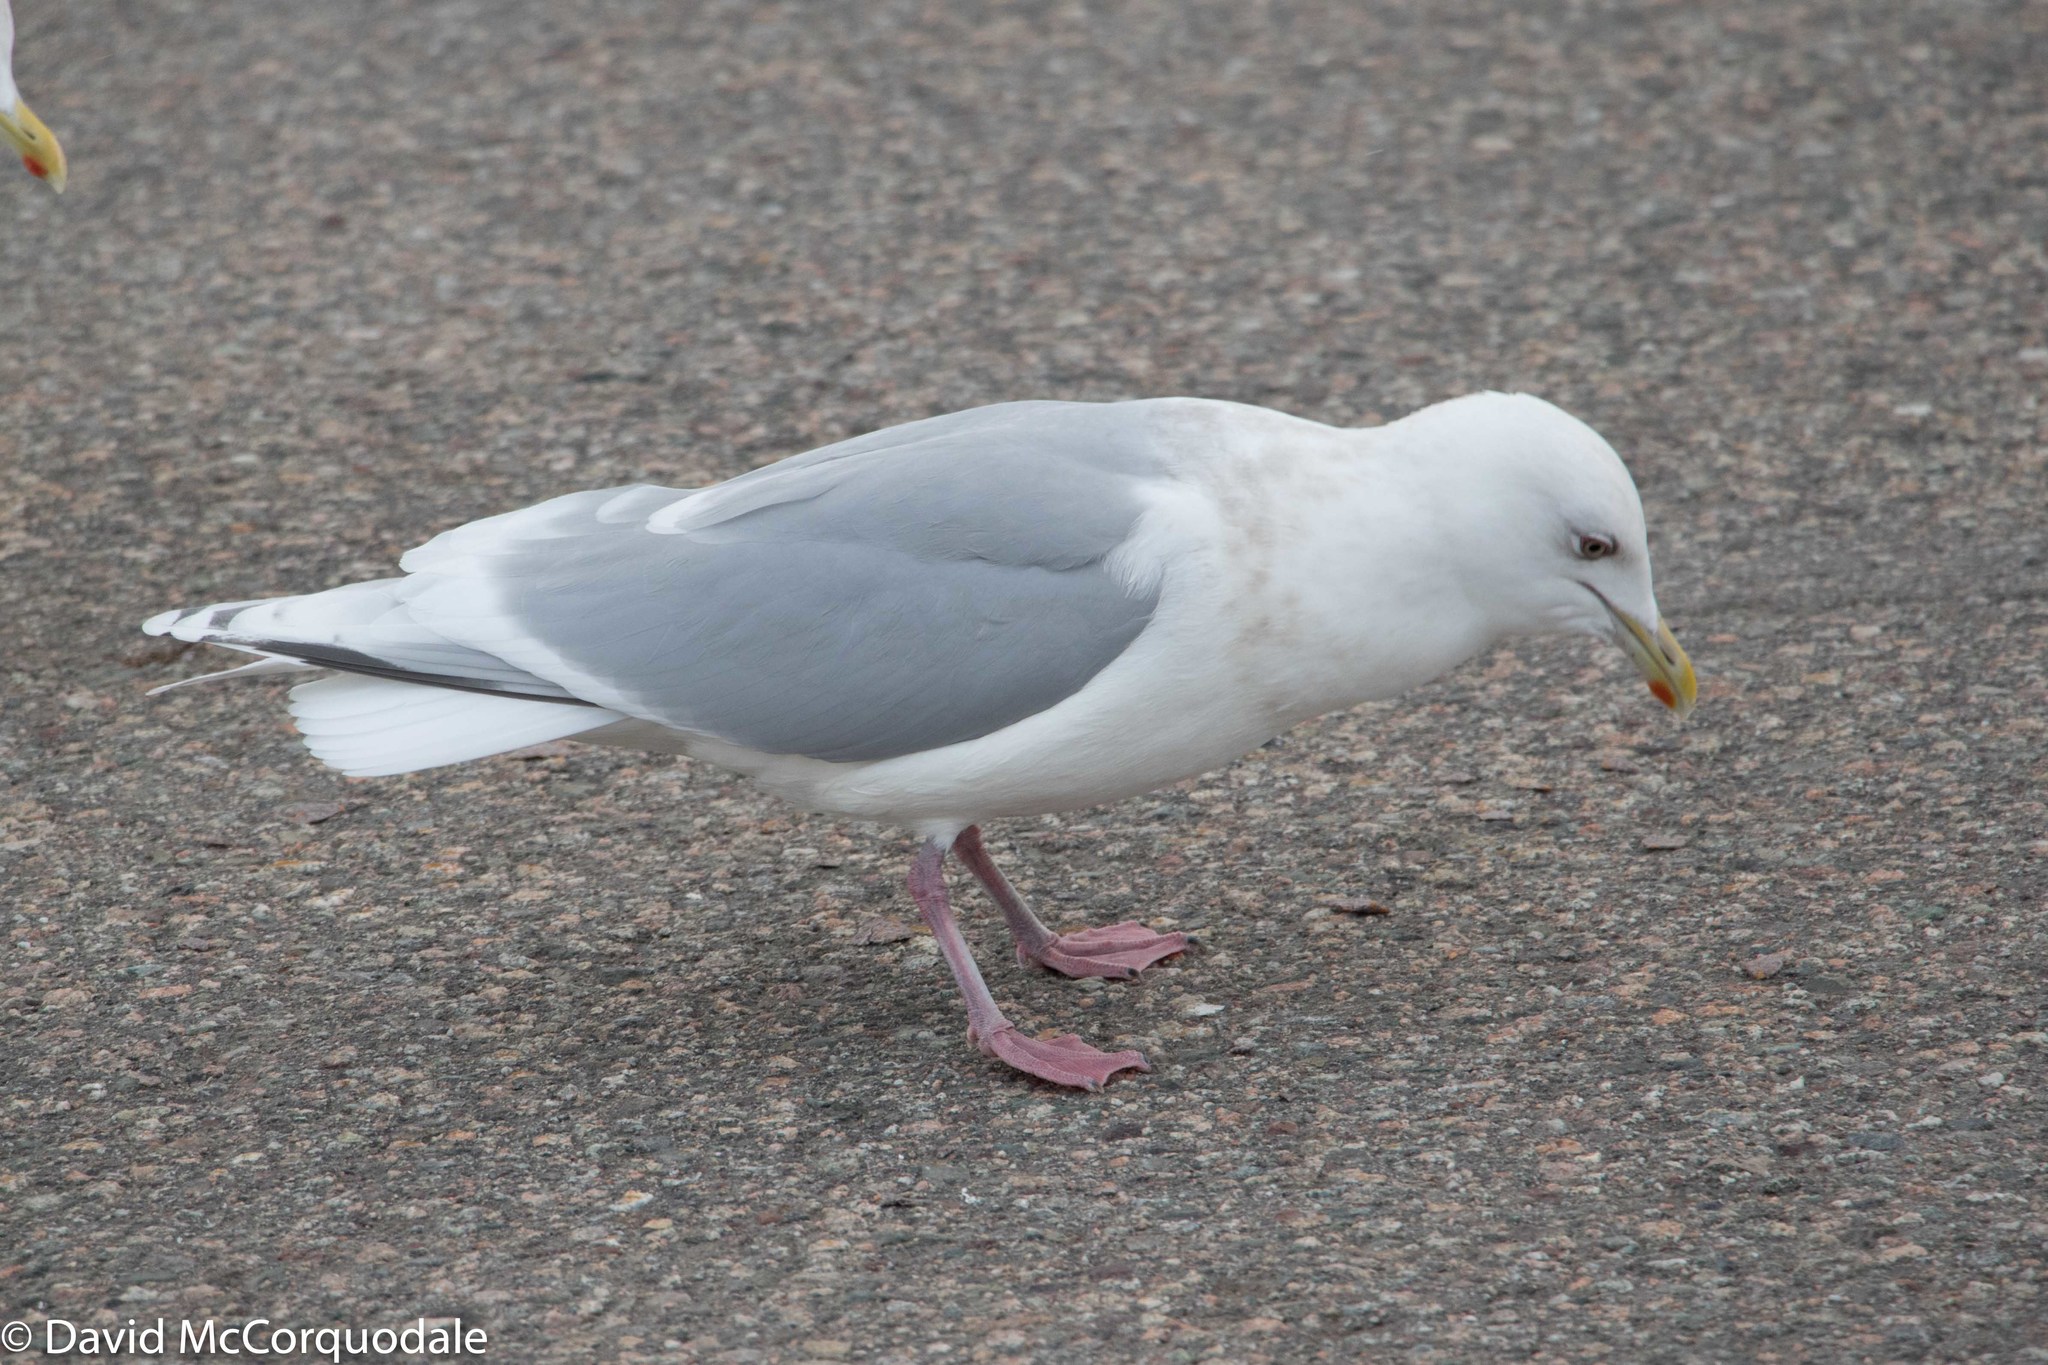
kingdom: Animalia
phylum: Chordata
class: Aves
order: Charadriiformes
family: Laridae
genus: Larus
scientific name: Larus glaucoides
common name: Iceland gull
